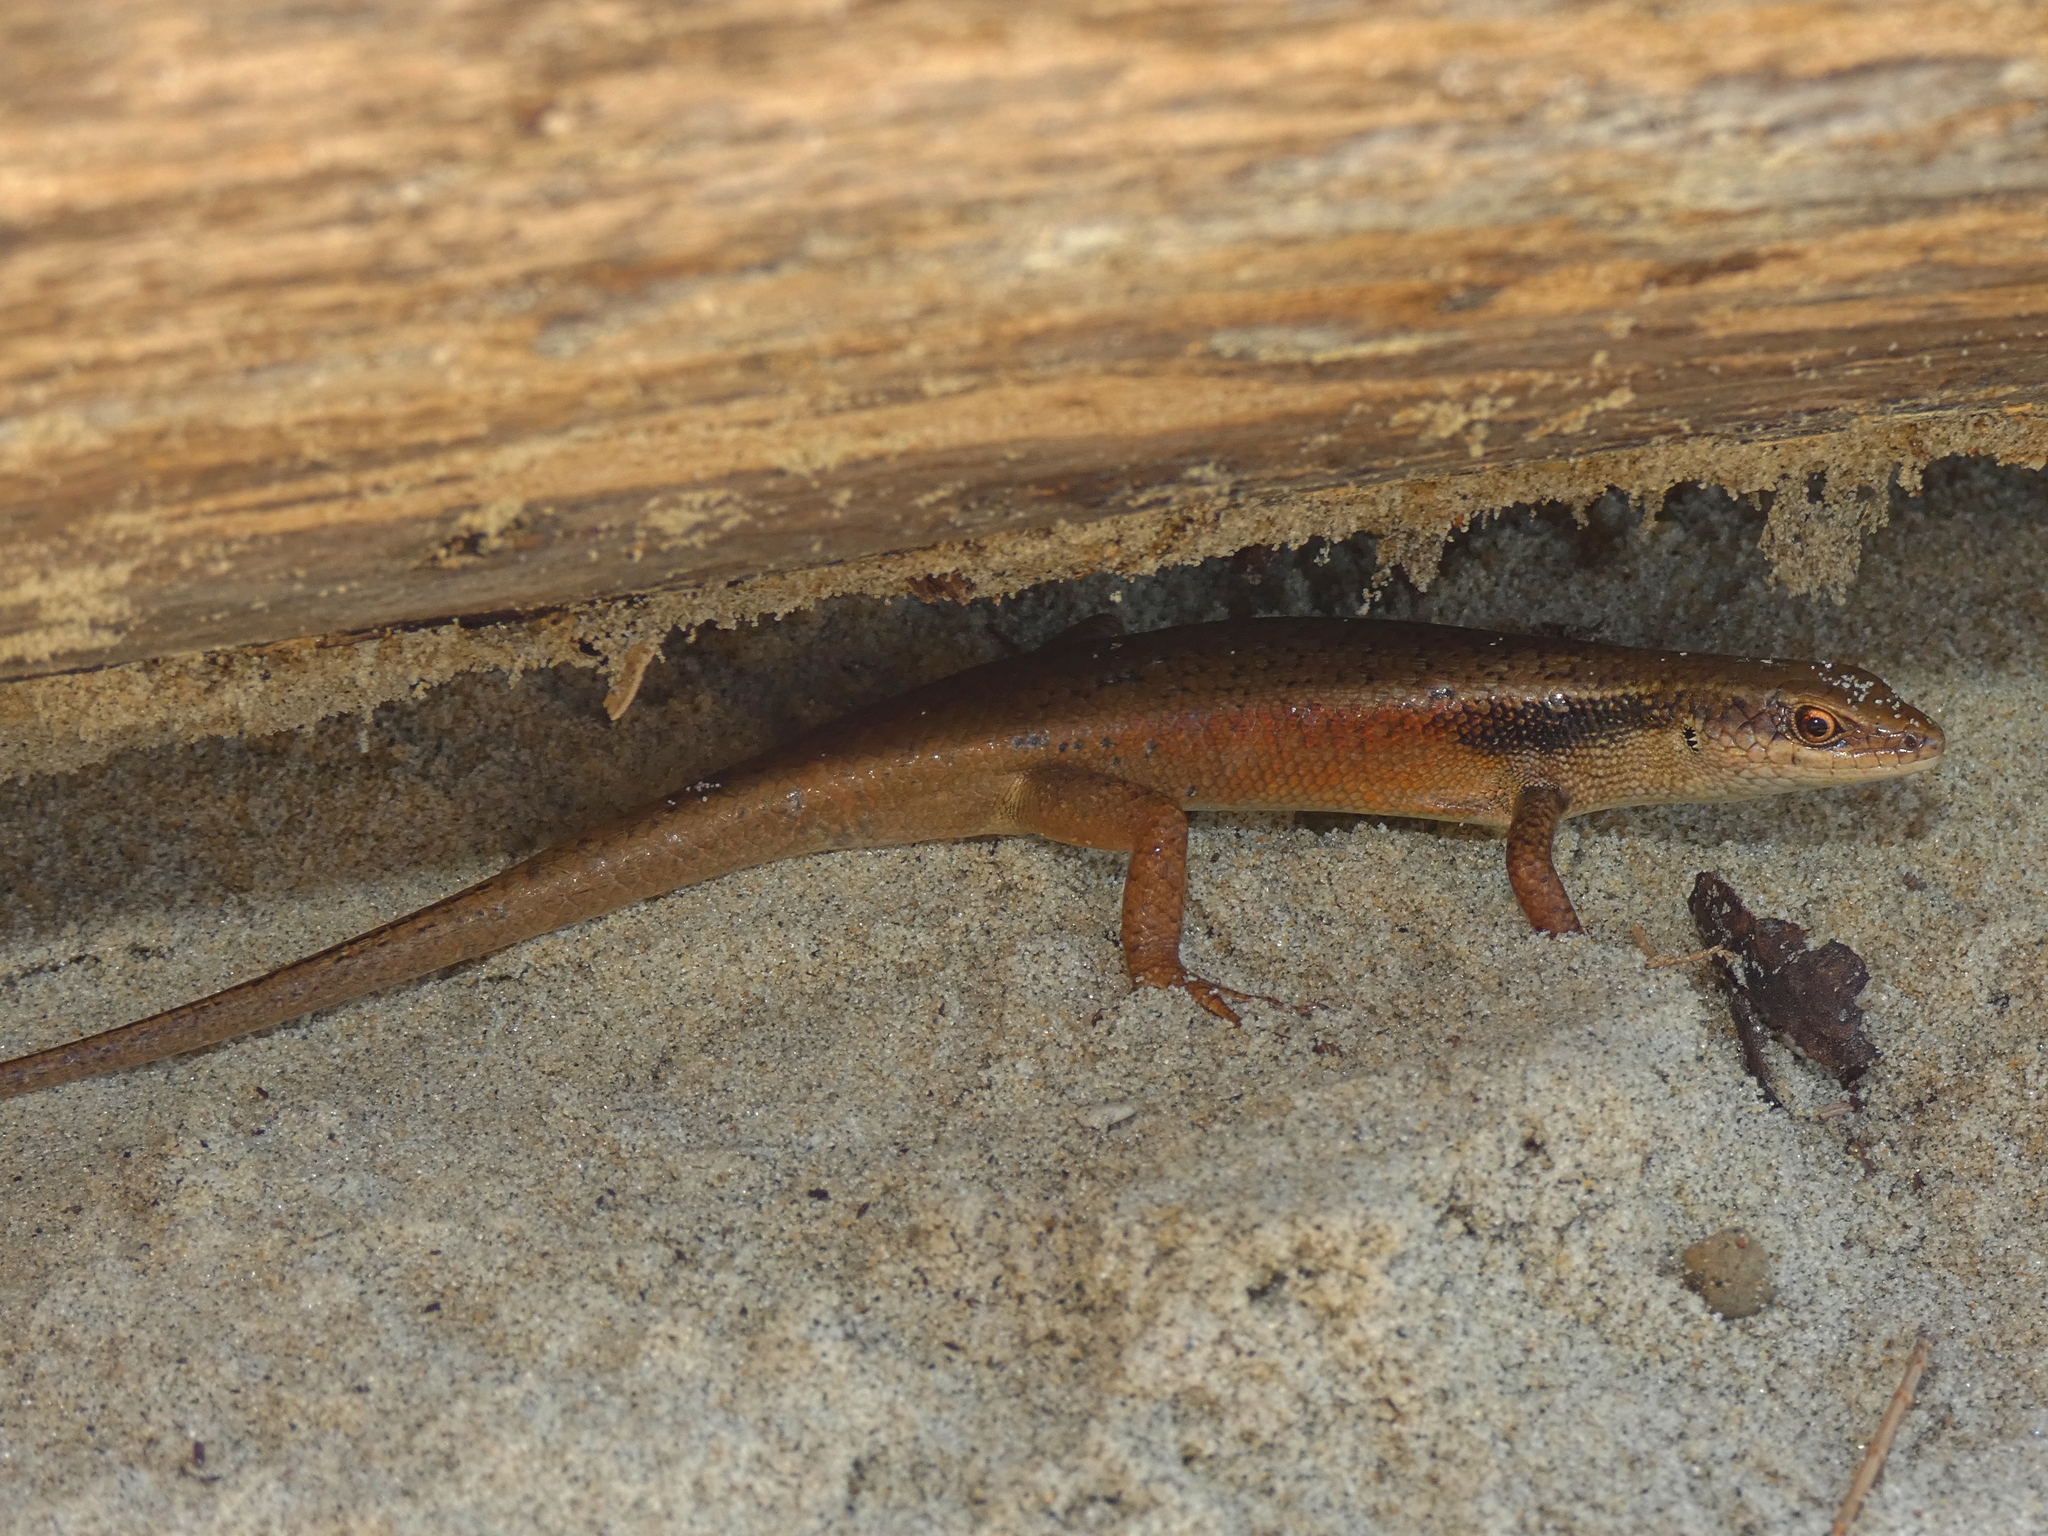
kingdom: Animalia
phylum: Chordata
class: Squamata
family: Scincidae
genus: Carlia
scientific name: Carlia longipes
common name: Closed-litter rainbow-skink
